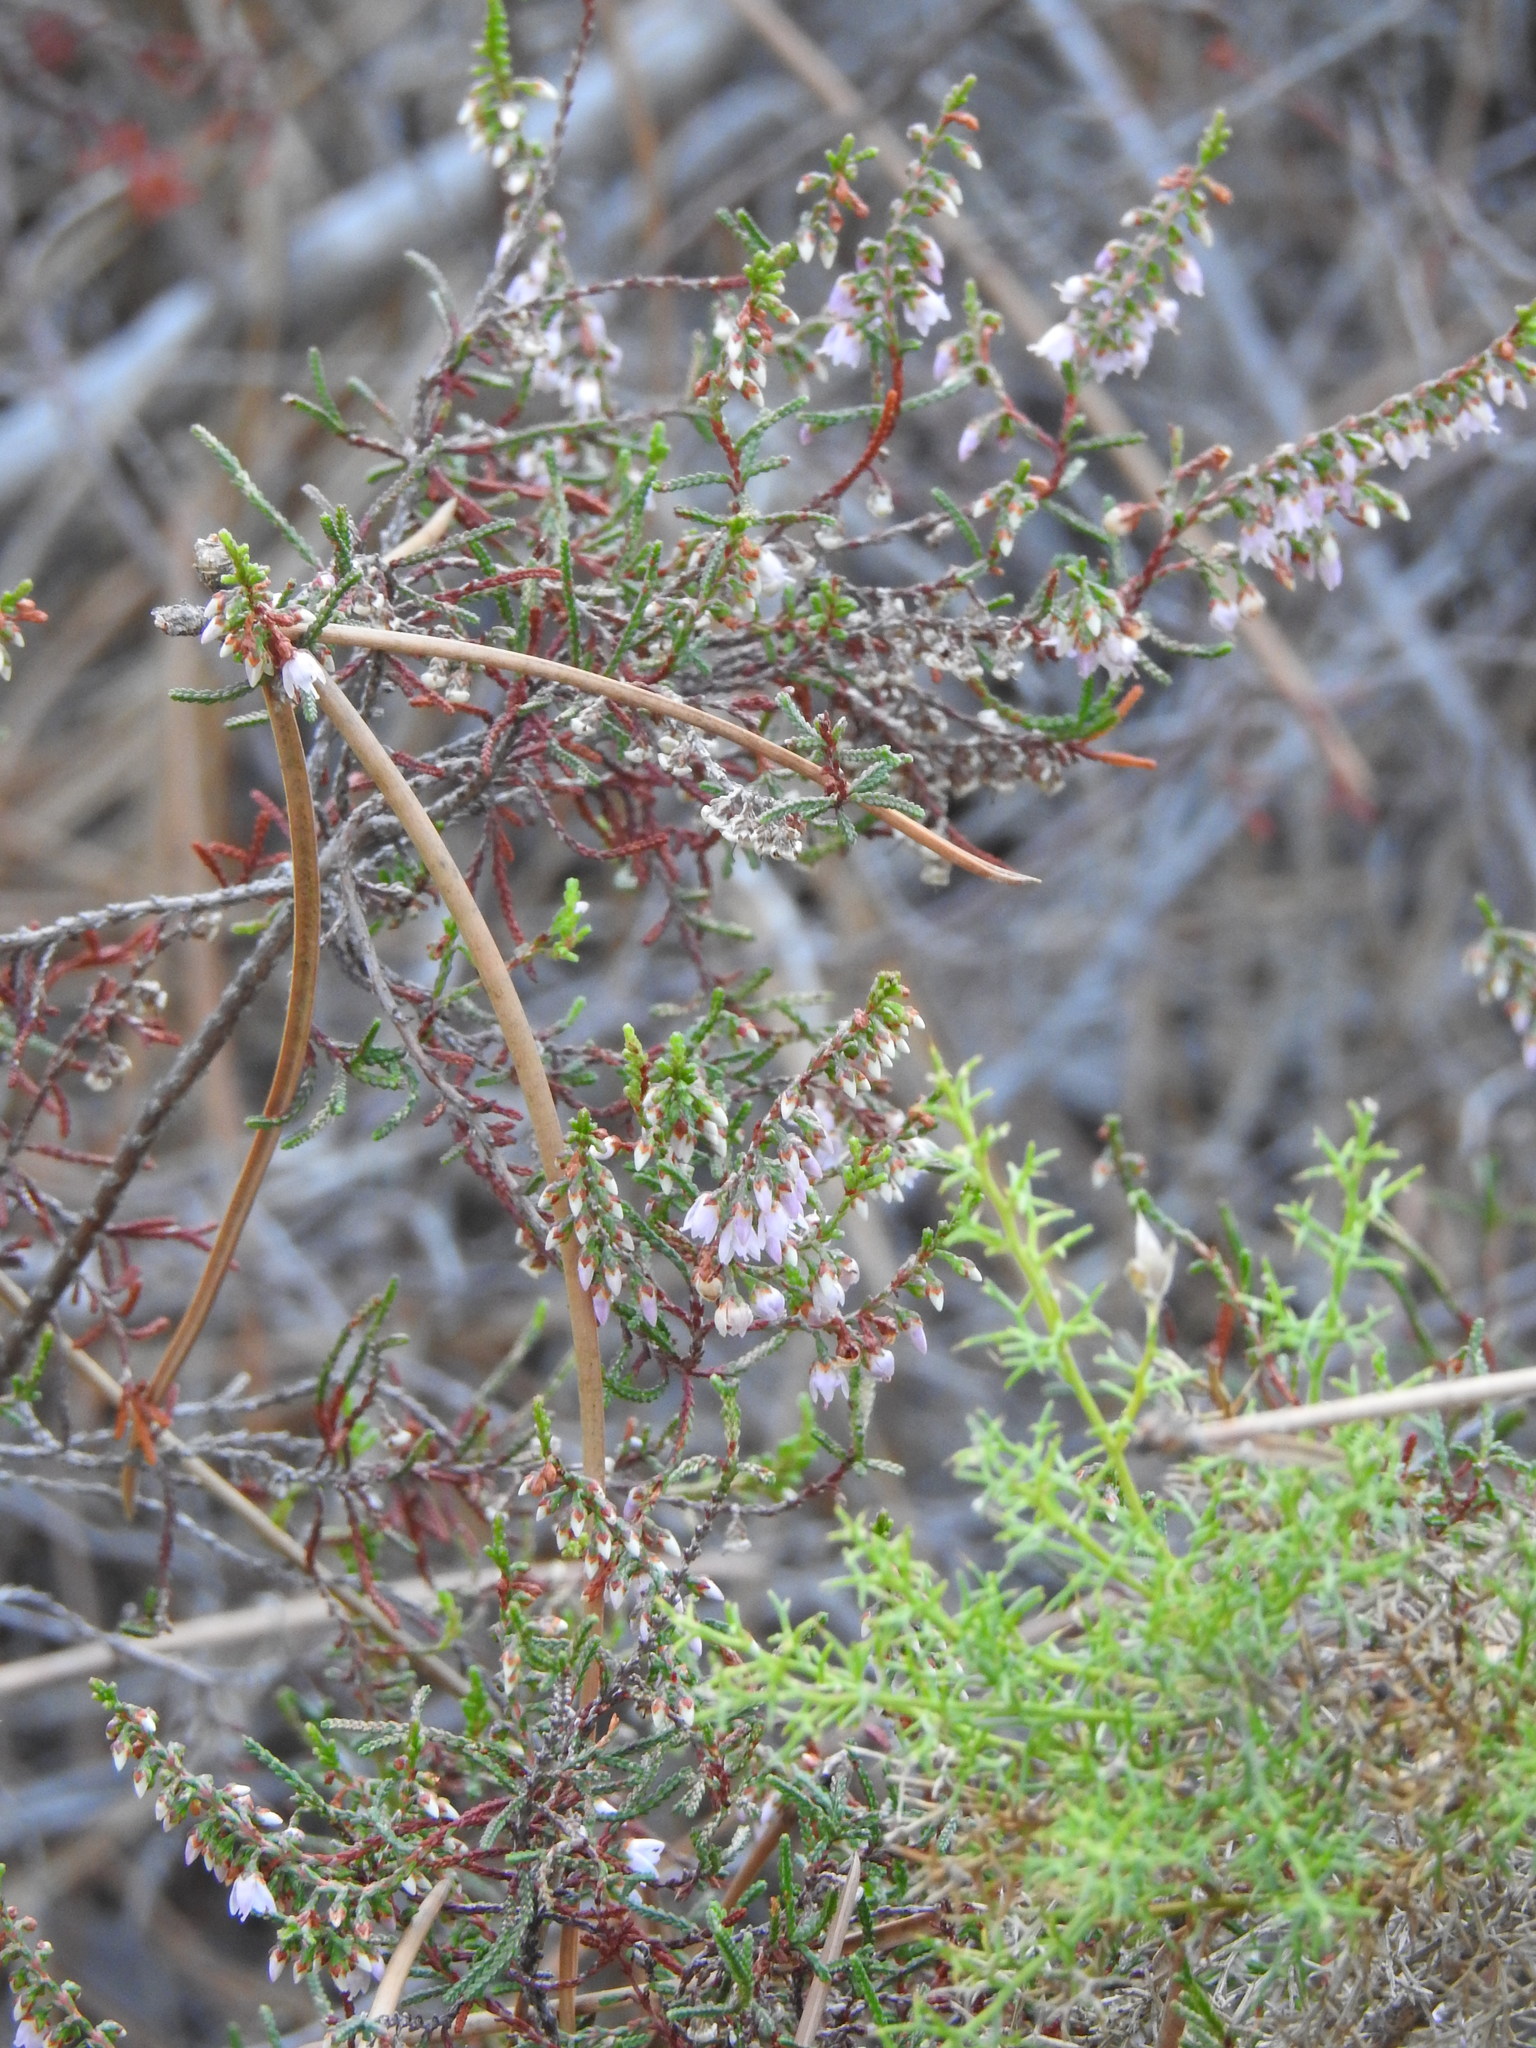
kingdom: Plantae
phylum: Tracheophyta
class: Magnoliopsida
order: Ericales
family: Ericaceae
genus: Calluna
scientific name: Calluna vulgaris
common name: Heather
